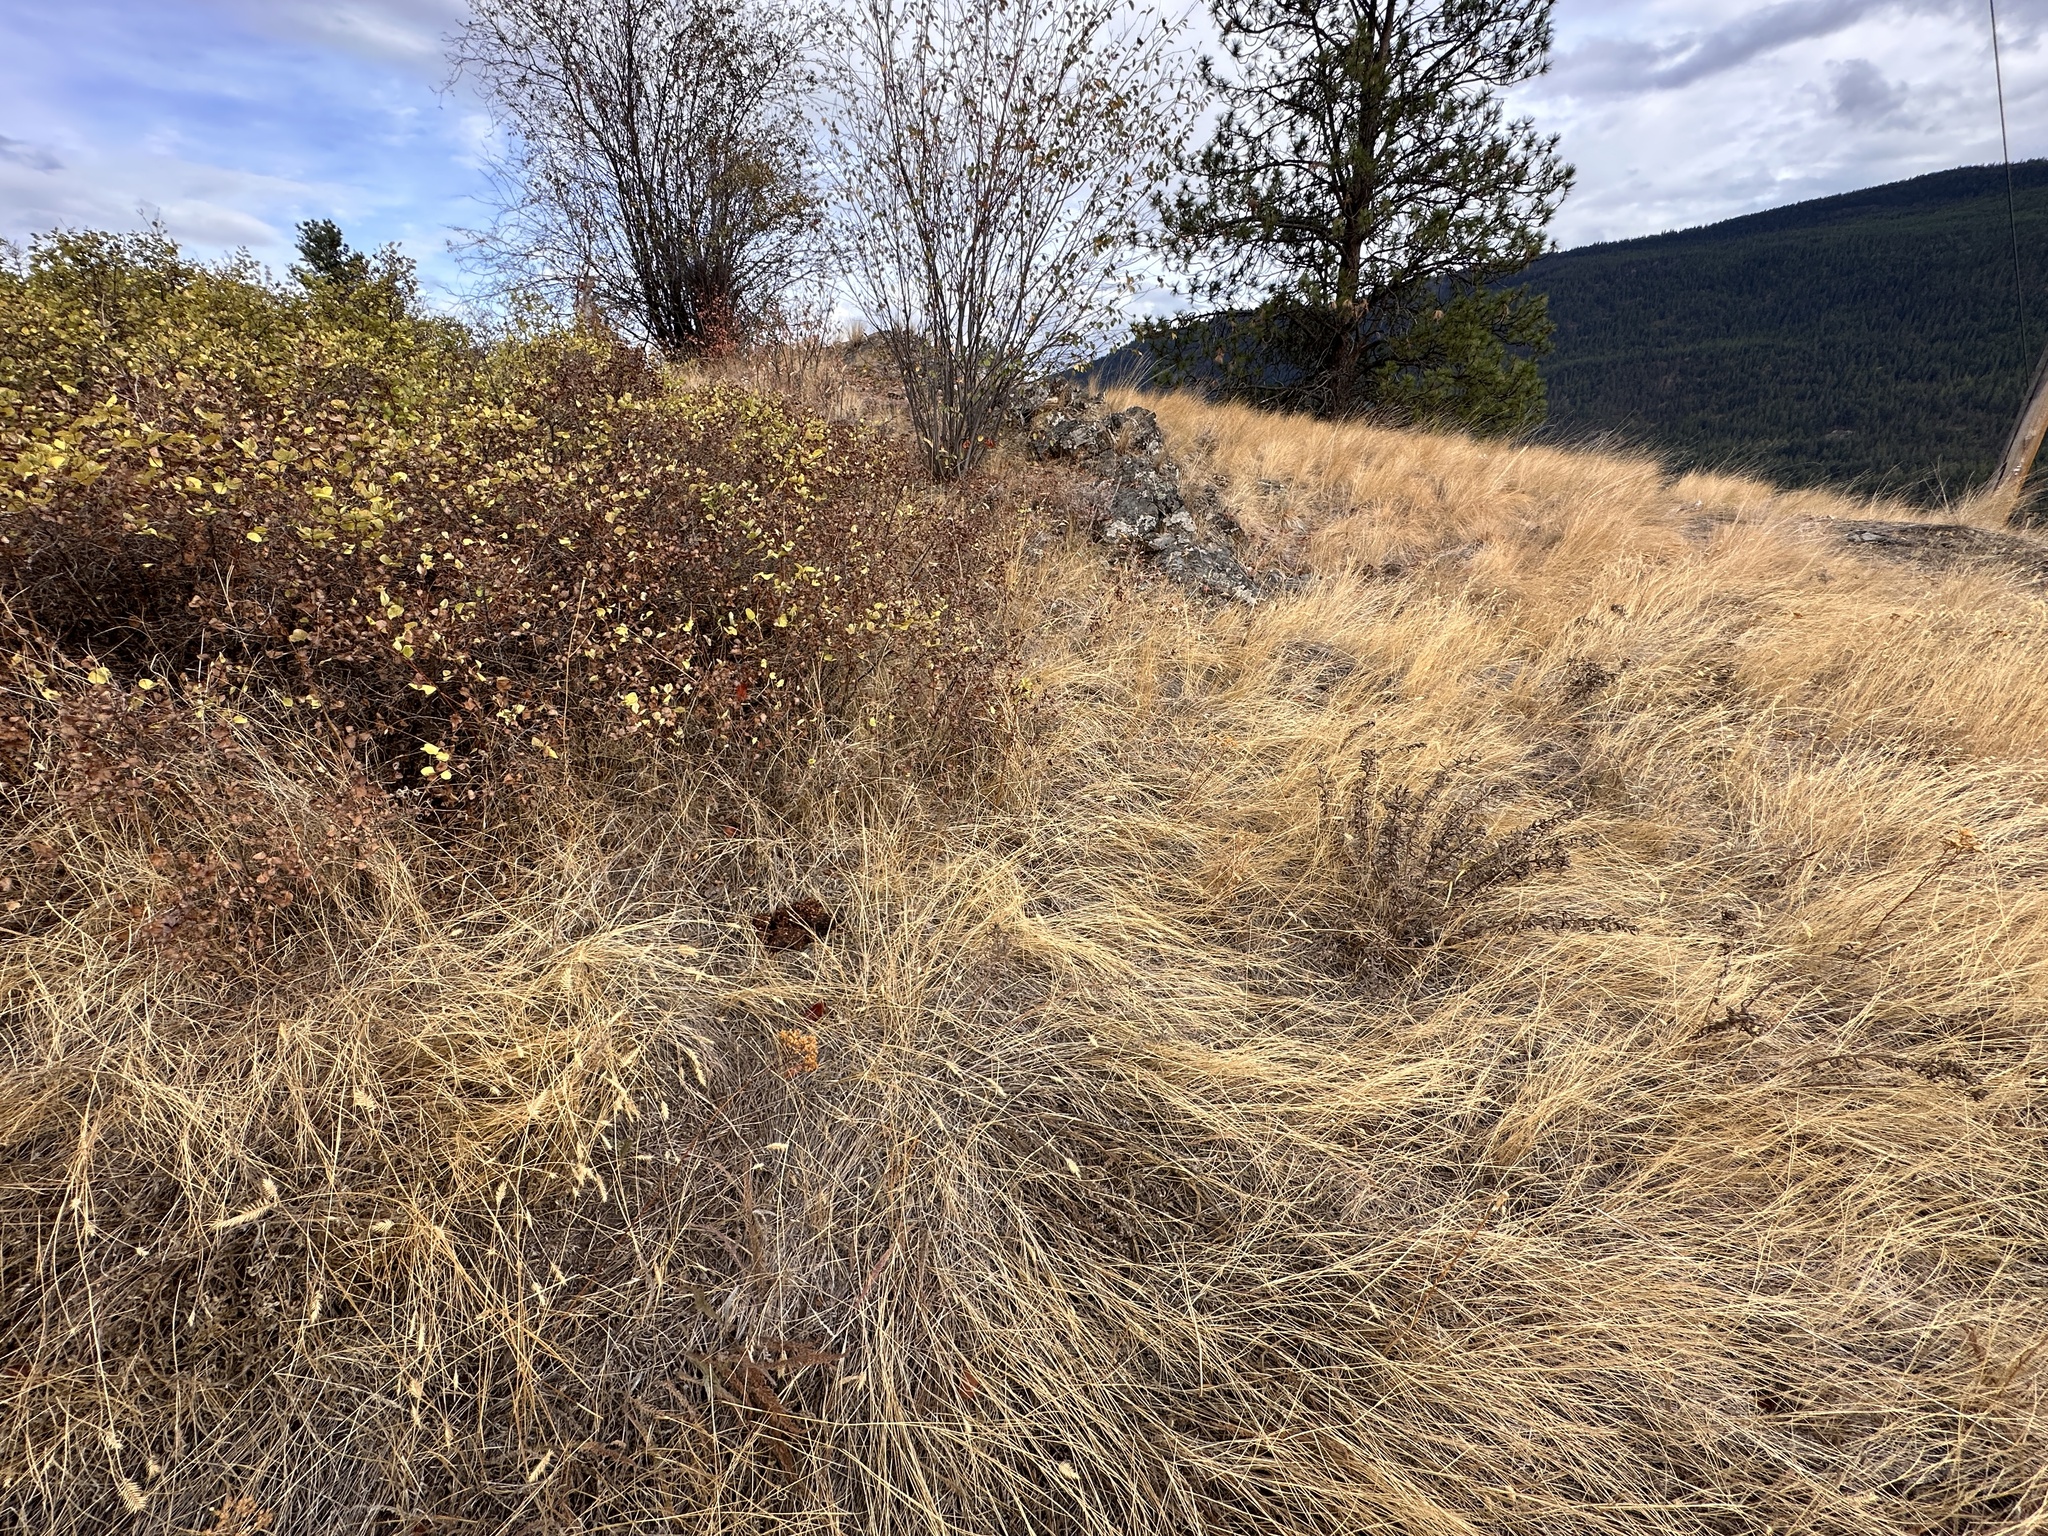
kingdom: Animalia
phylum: Chordata
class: Mammalia
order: Carnivora
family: Ursidae
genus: Ursus
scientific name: Ursus americanus
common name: American black bear
